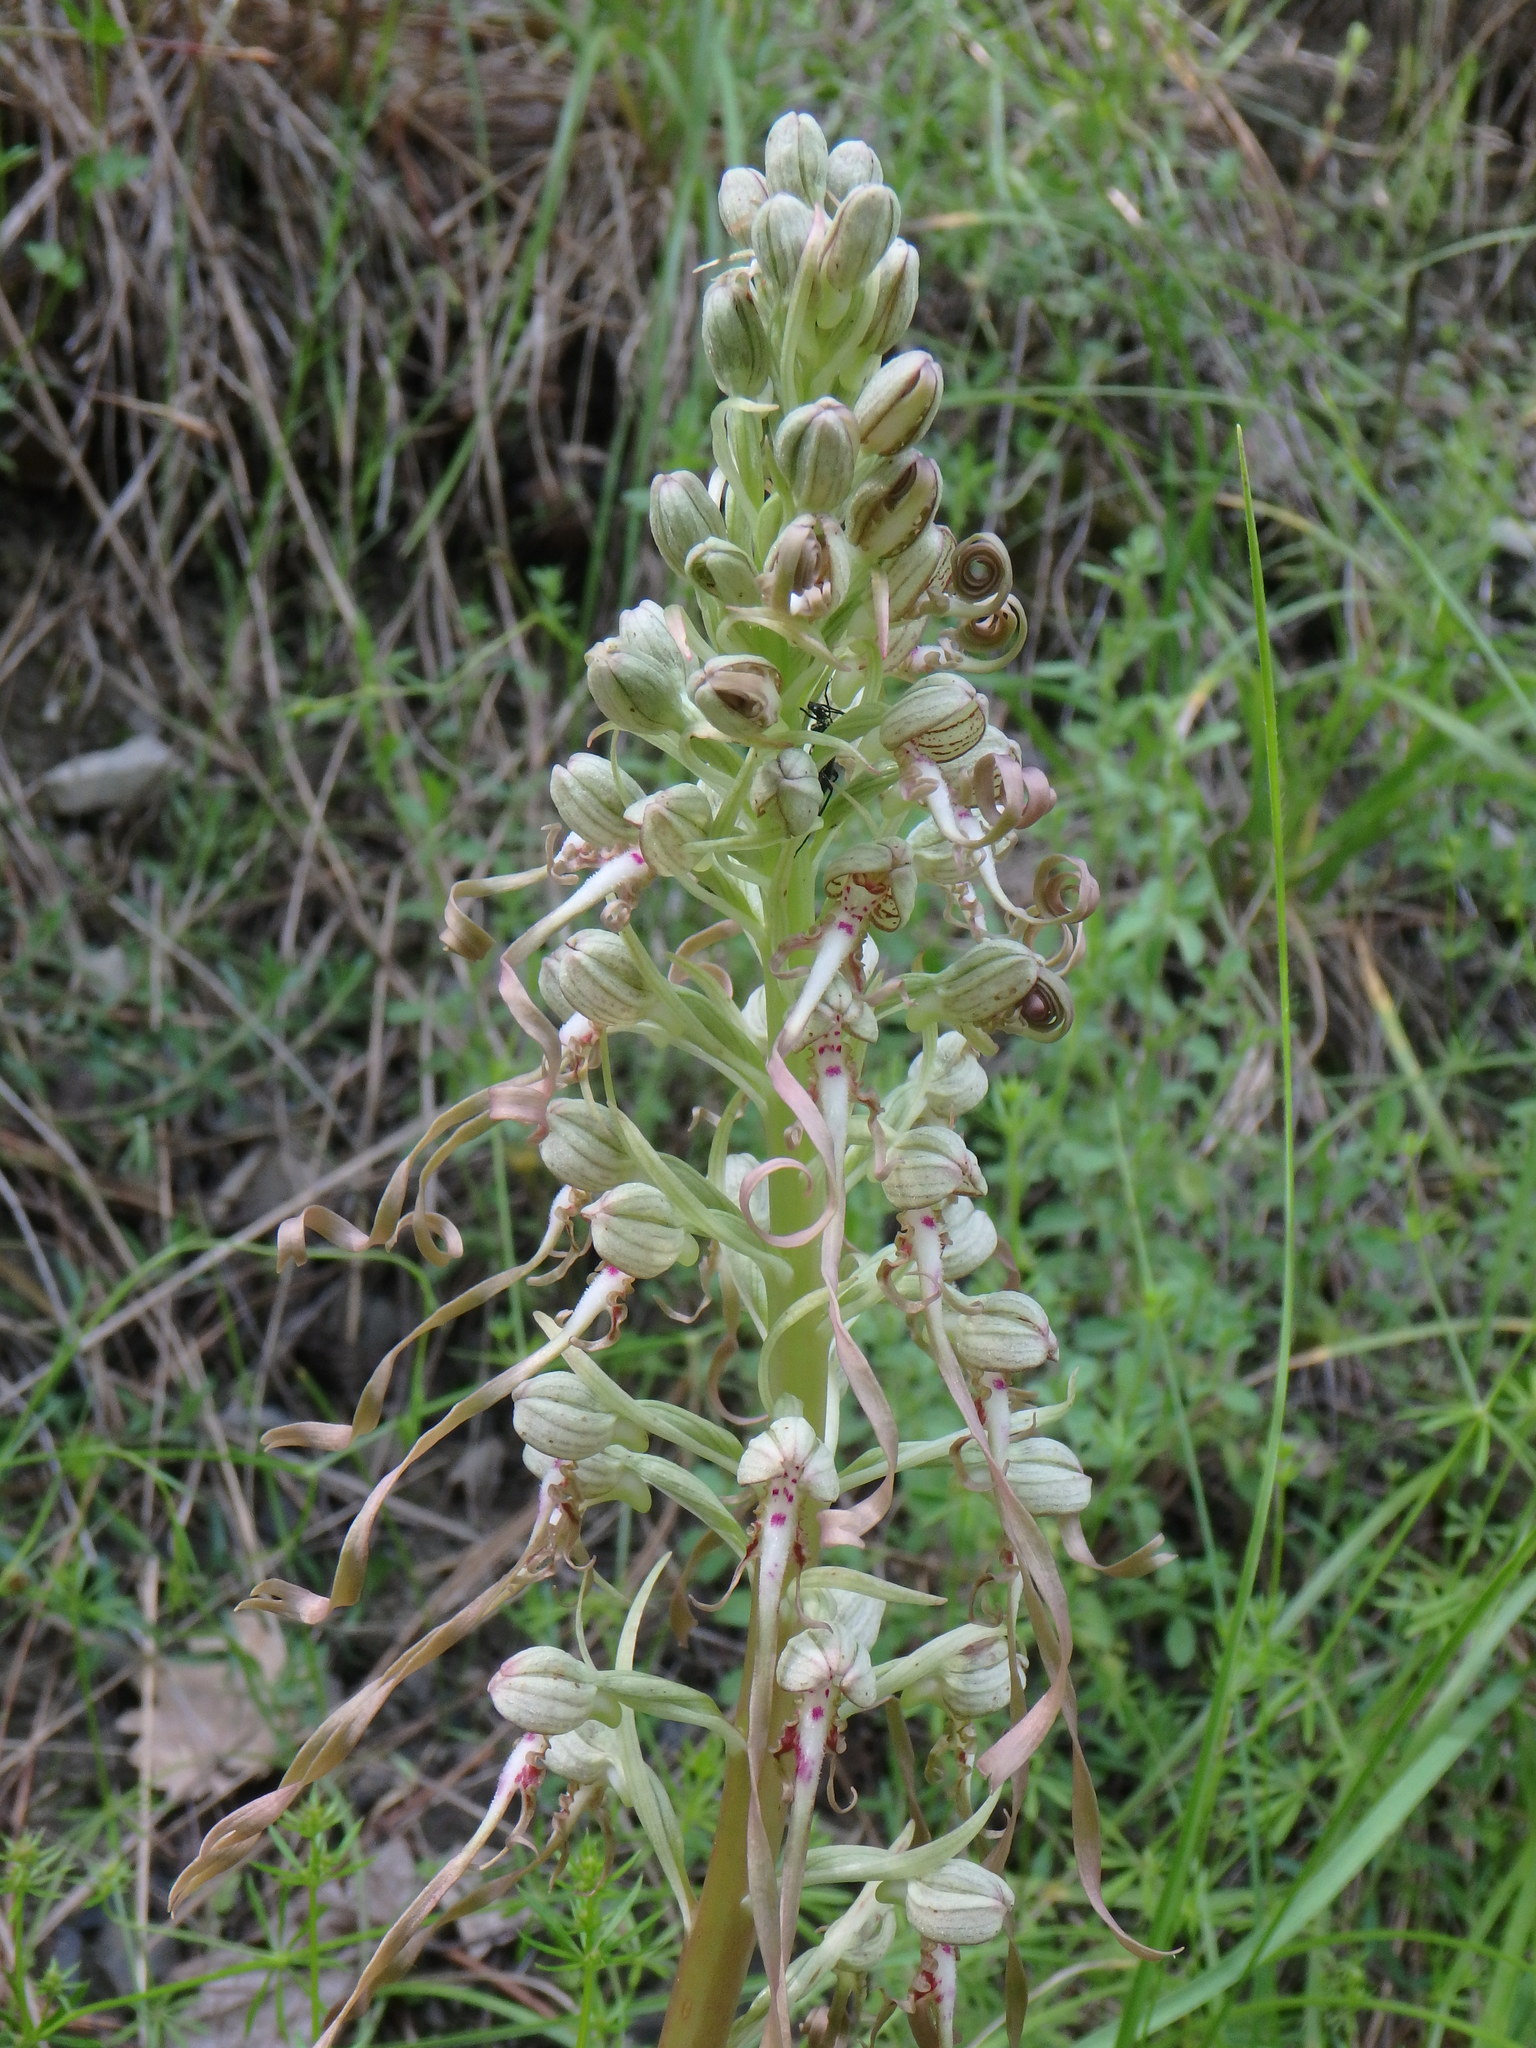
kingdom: Plantae
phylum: Tracheophyta
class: Liliopsida
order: Asparagales
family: Orchidaceae
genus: Himantoglossum
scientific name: Himantoglossum hircinum
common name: Lizard orchid
